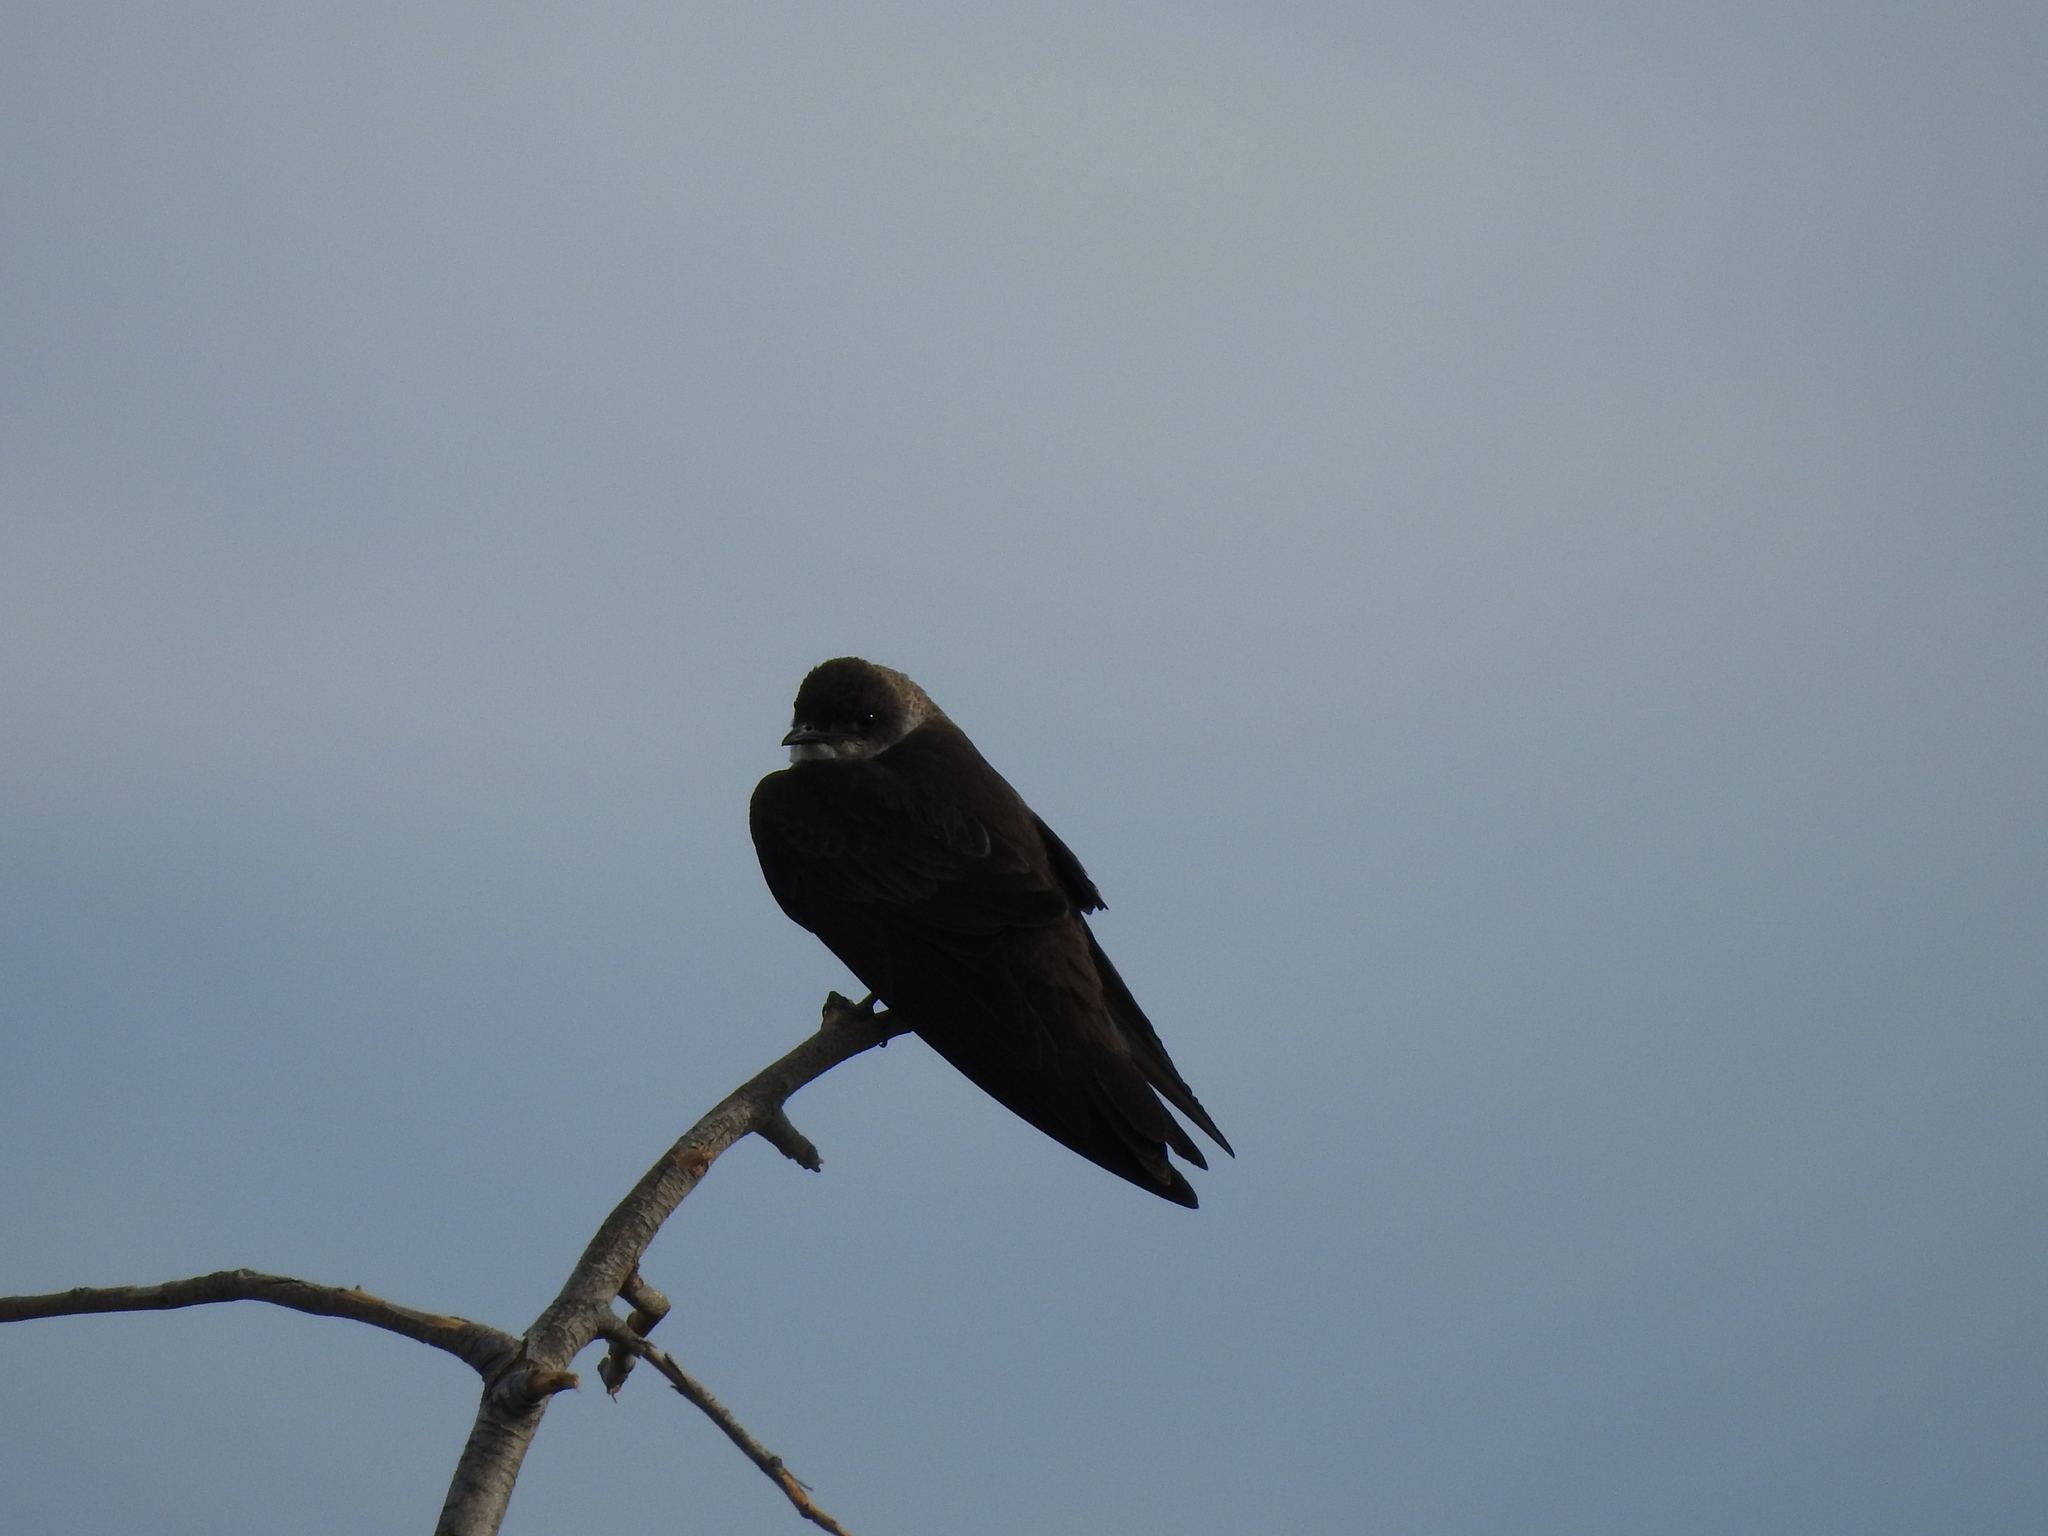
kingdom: Animalia
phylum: Chordata
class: Aves
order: Passeriformes
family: Hirundinidae
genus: Progne
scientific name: Progne tapera
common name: Brown-chested martin
